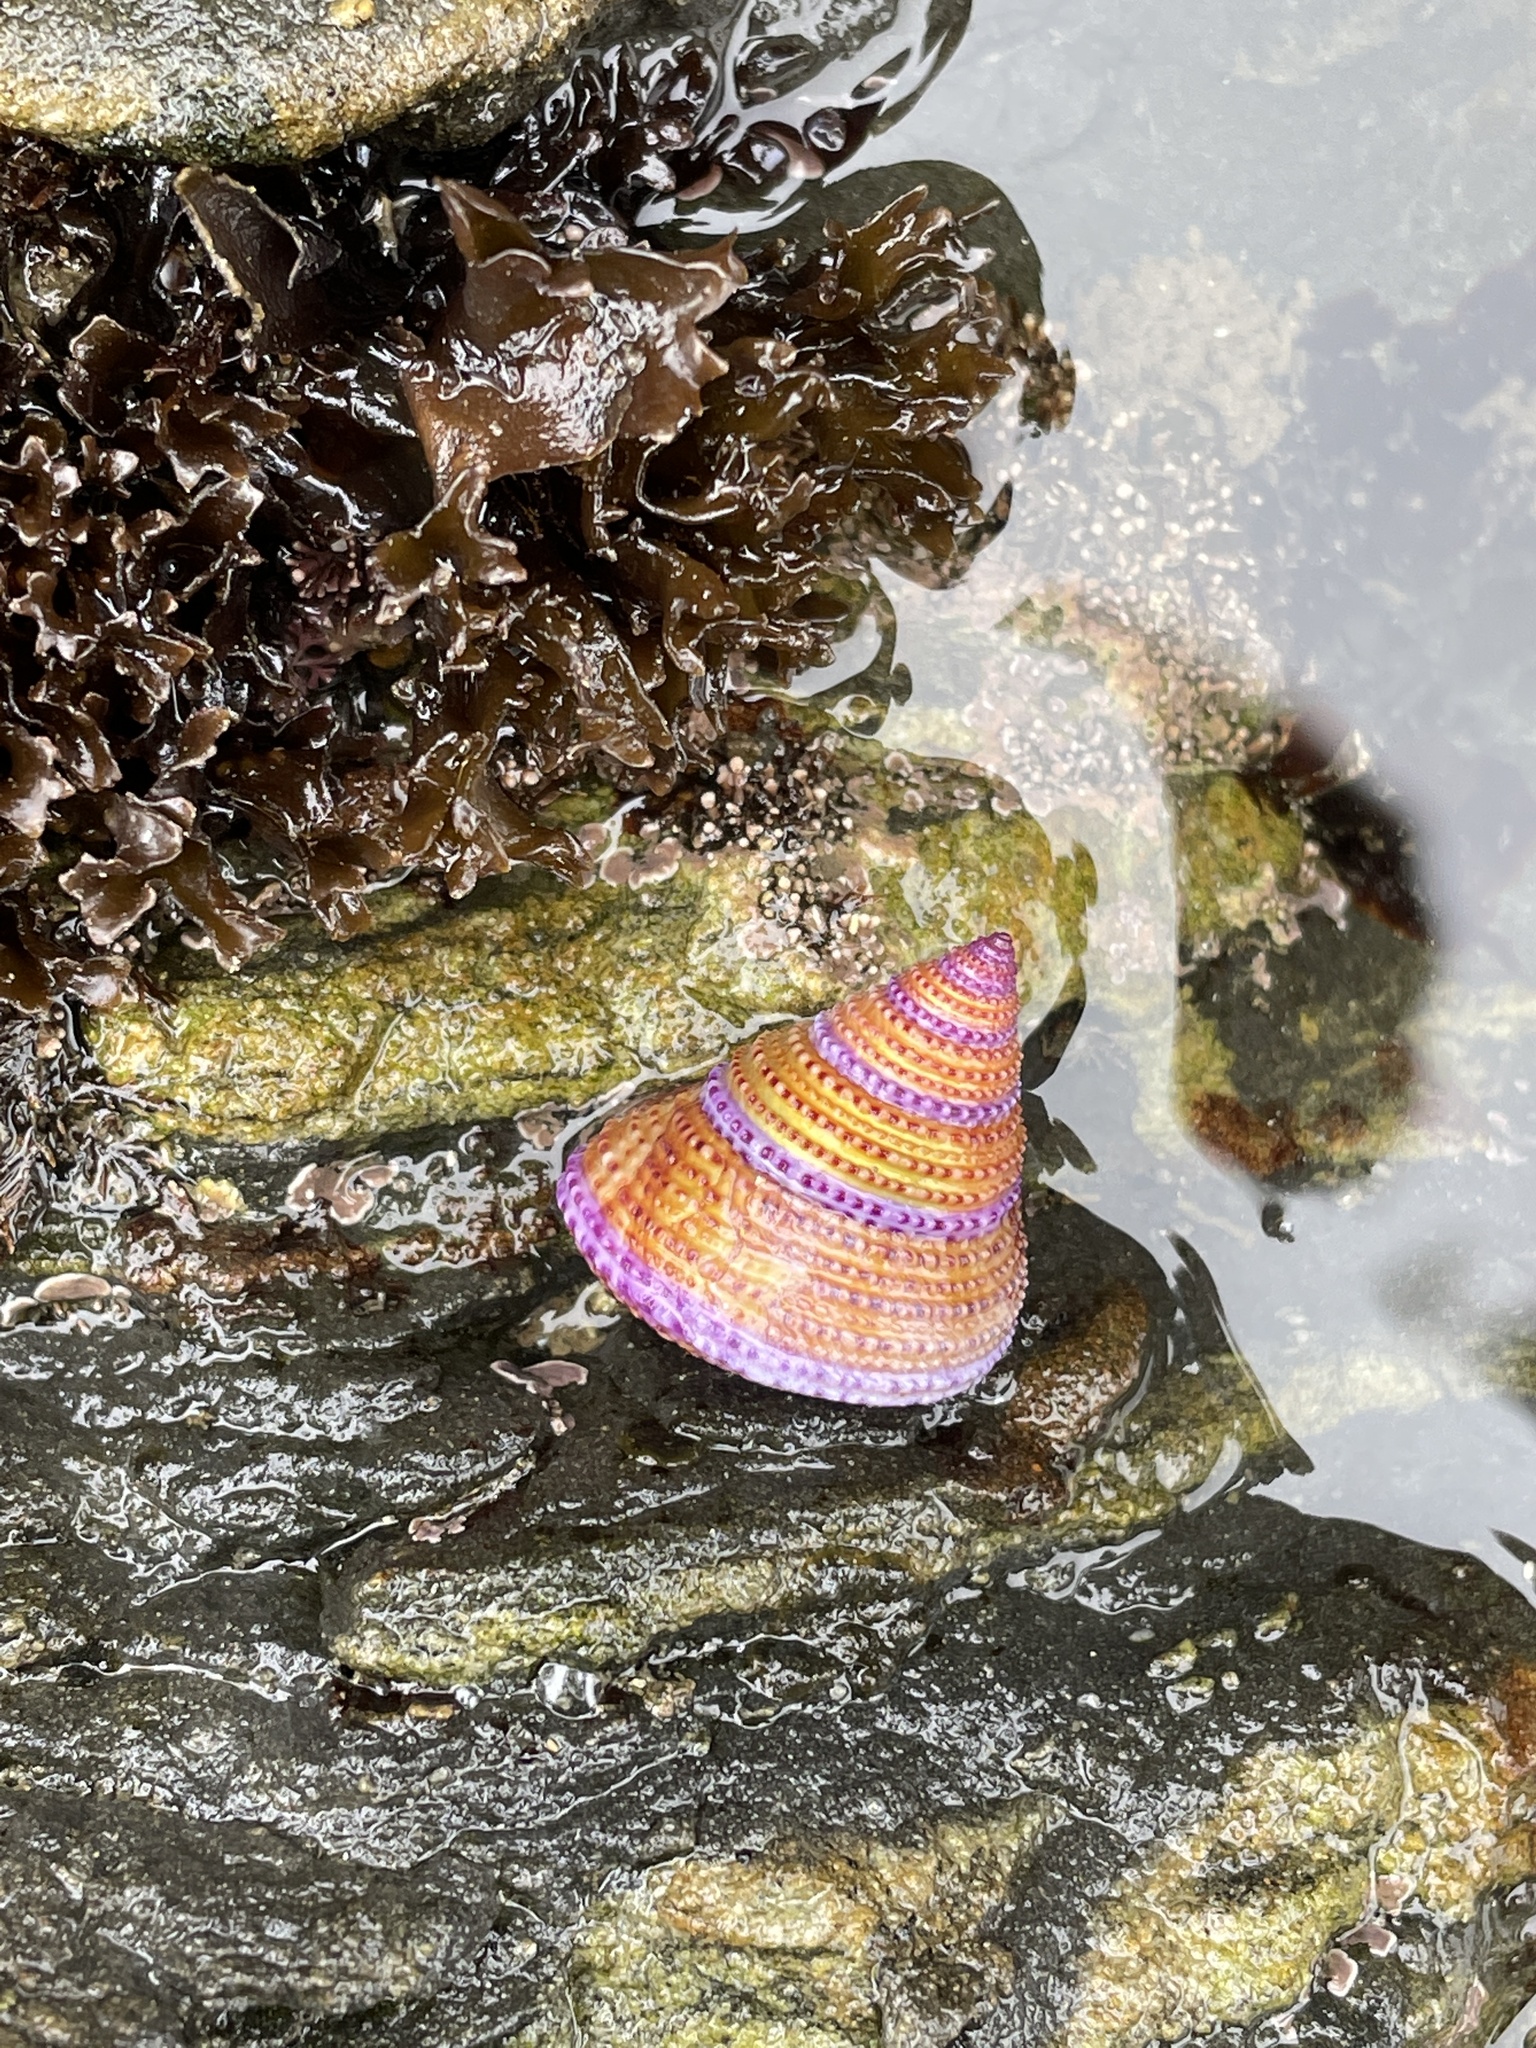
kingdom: Animalia
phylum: Mollusca
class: Gastropoda
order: Trochida
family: Calliostomatidae
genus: Calliostoma
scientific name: Calliostoma annulatum
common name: Blue-ring topsnail
